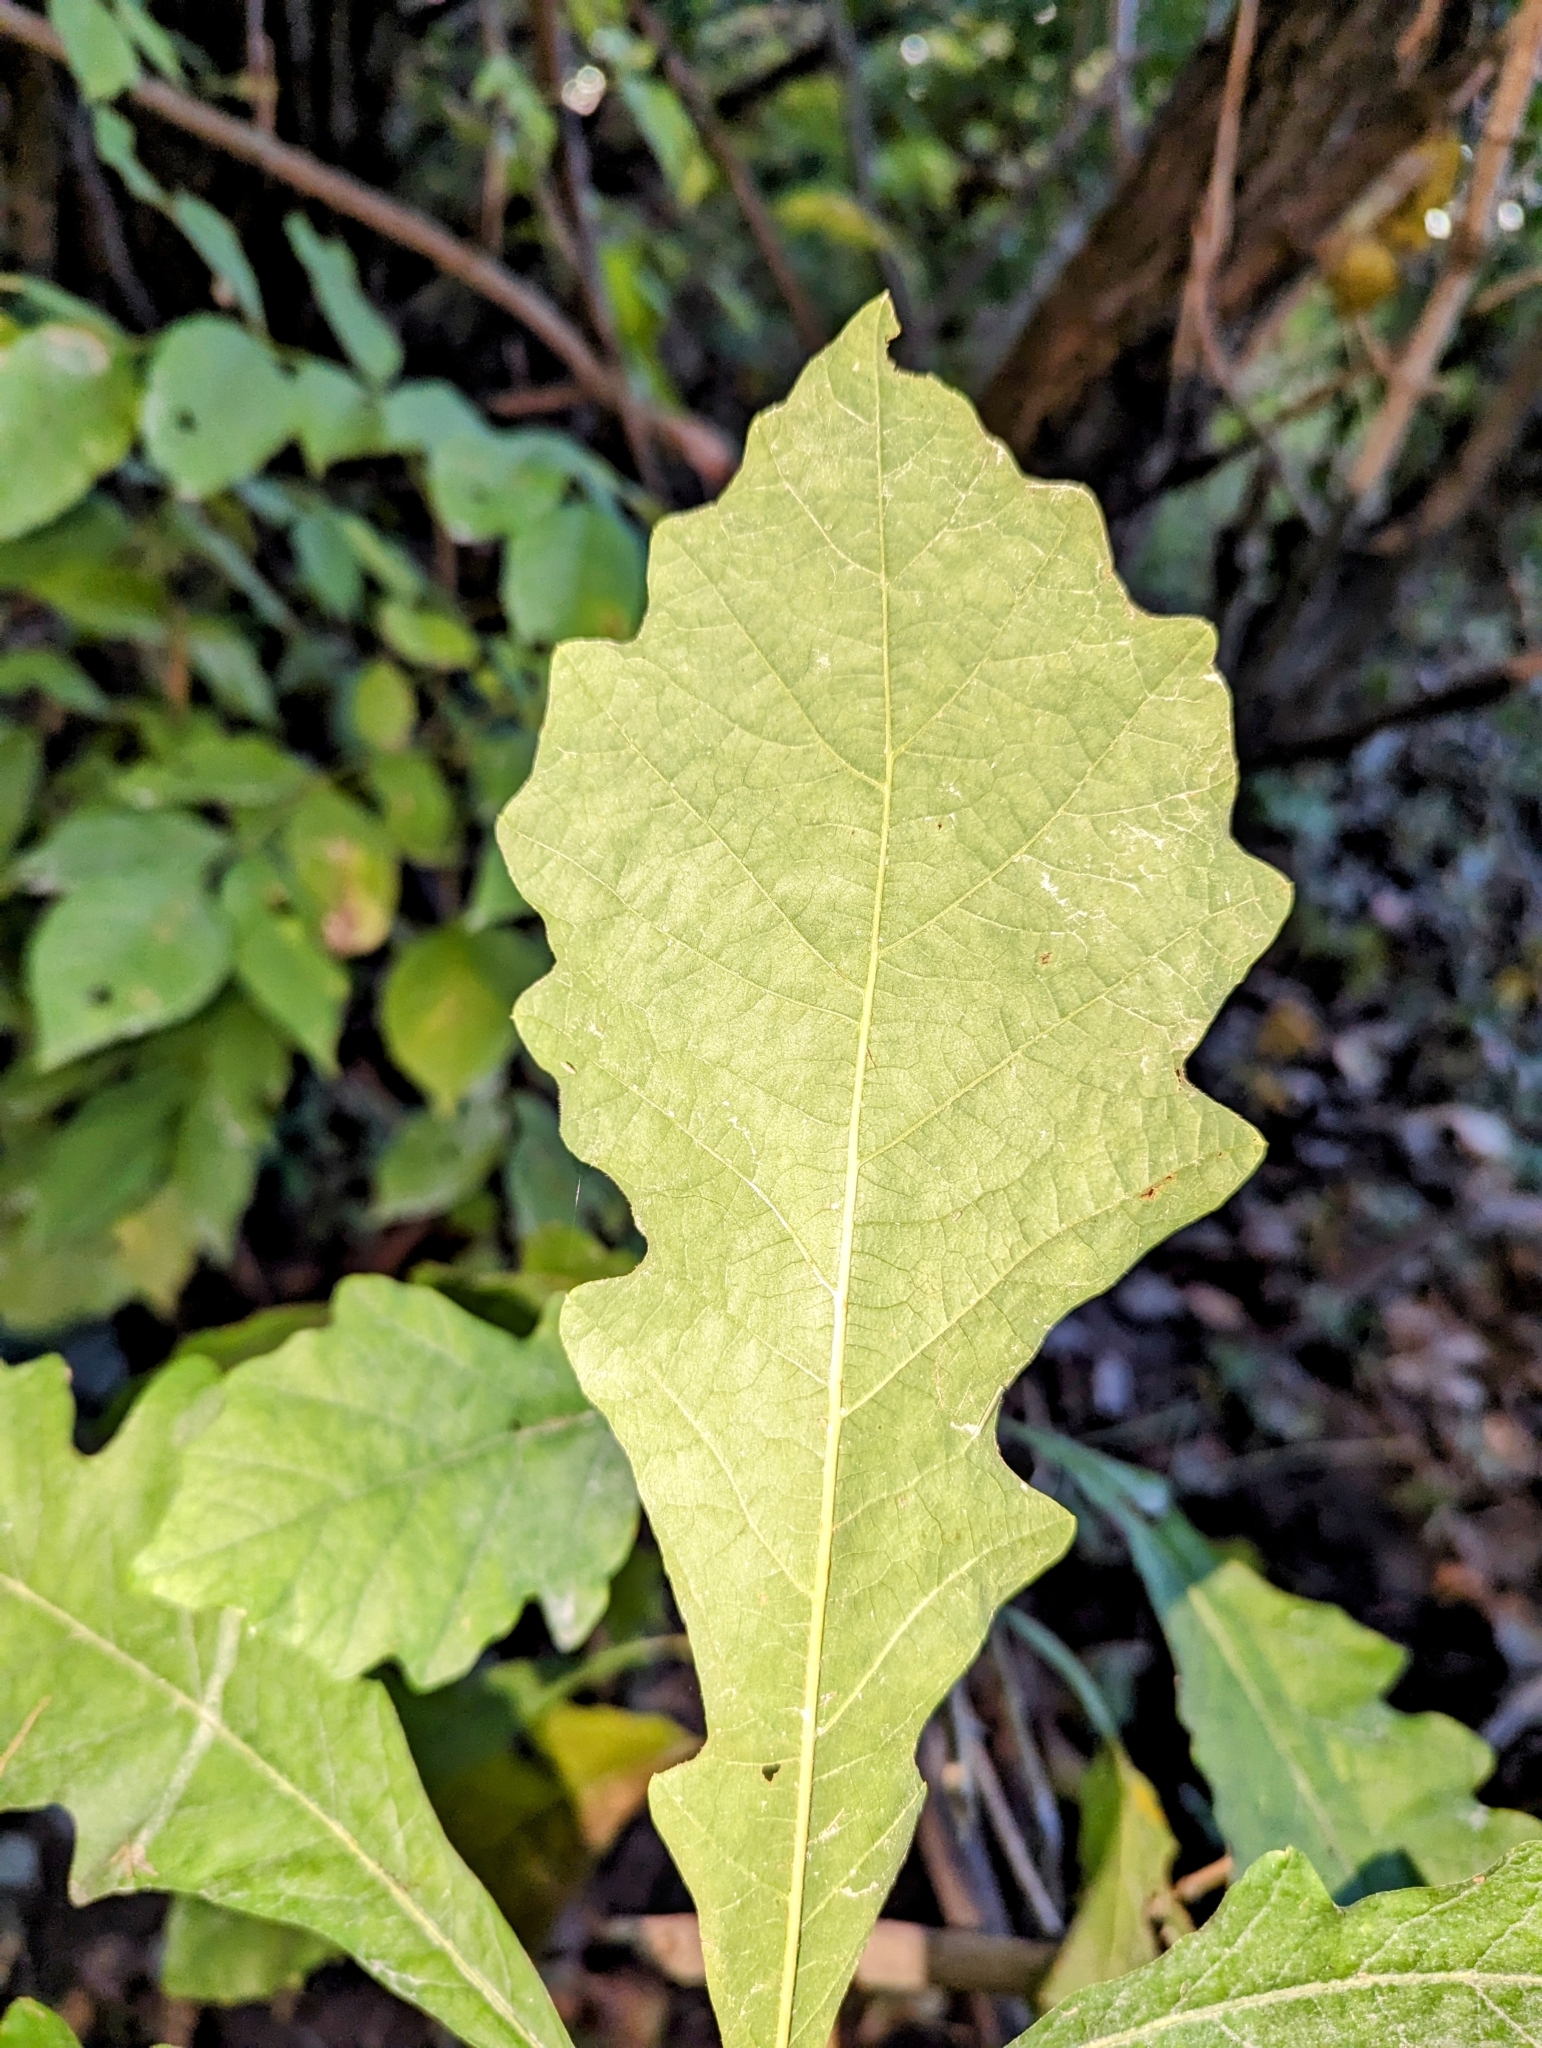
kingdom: Plantae
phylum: Tracheophyta
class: Magnoliopsida
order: Fagales
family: Fagaceae
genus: Quercus
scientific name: Quercus macrocarpa
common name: Bur oak
